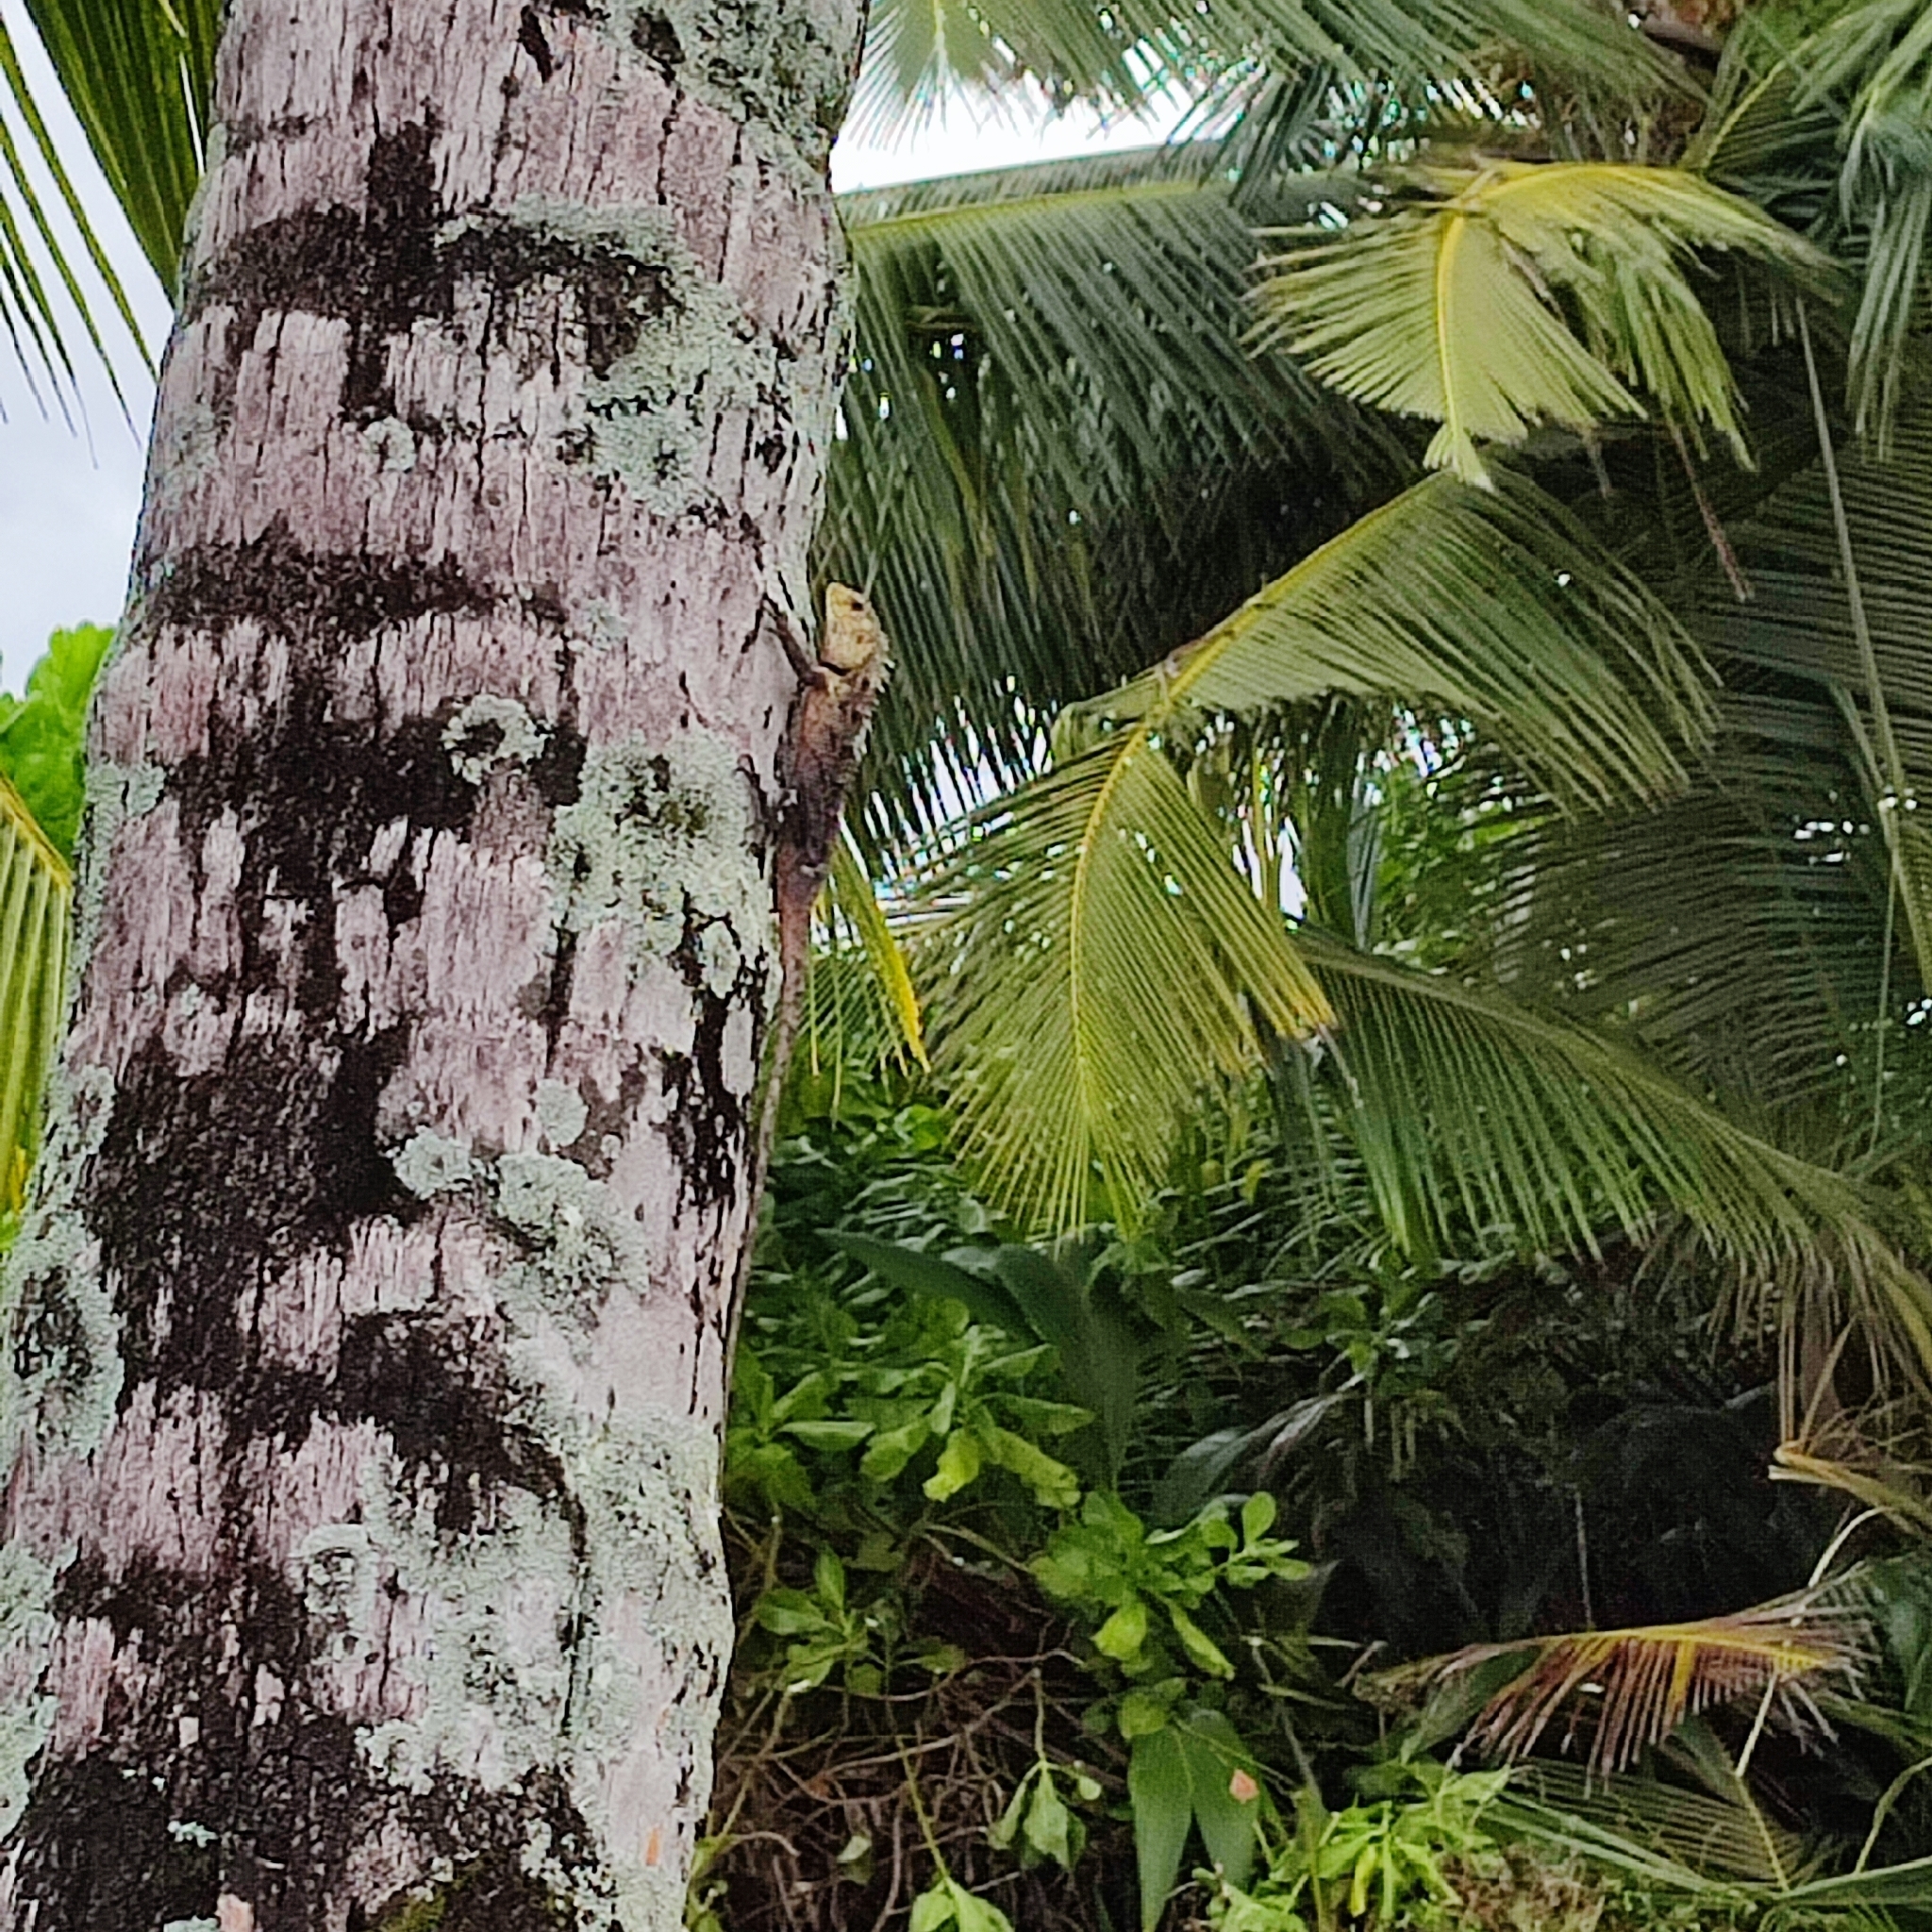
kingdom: Animalia
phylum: Chordata
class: Squamata
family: Agamidae
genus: Calotes
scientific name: Calotes versicolor
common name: Oriental garden lizard
